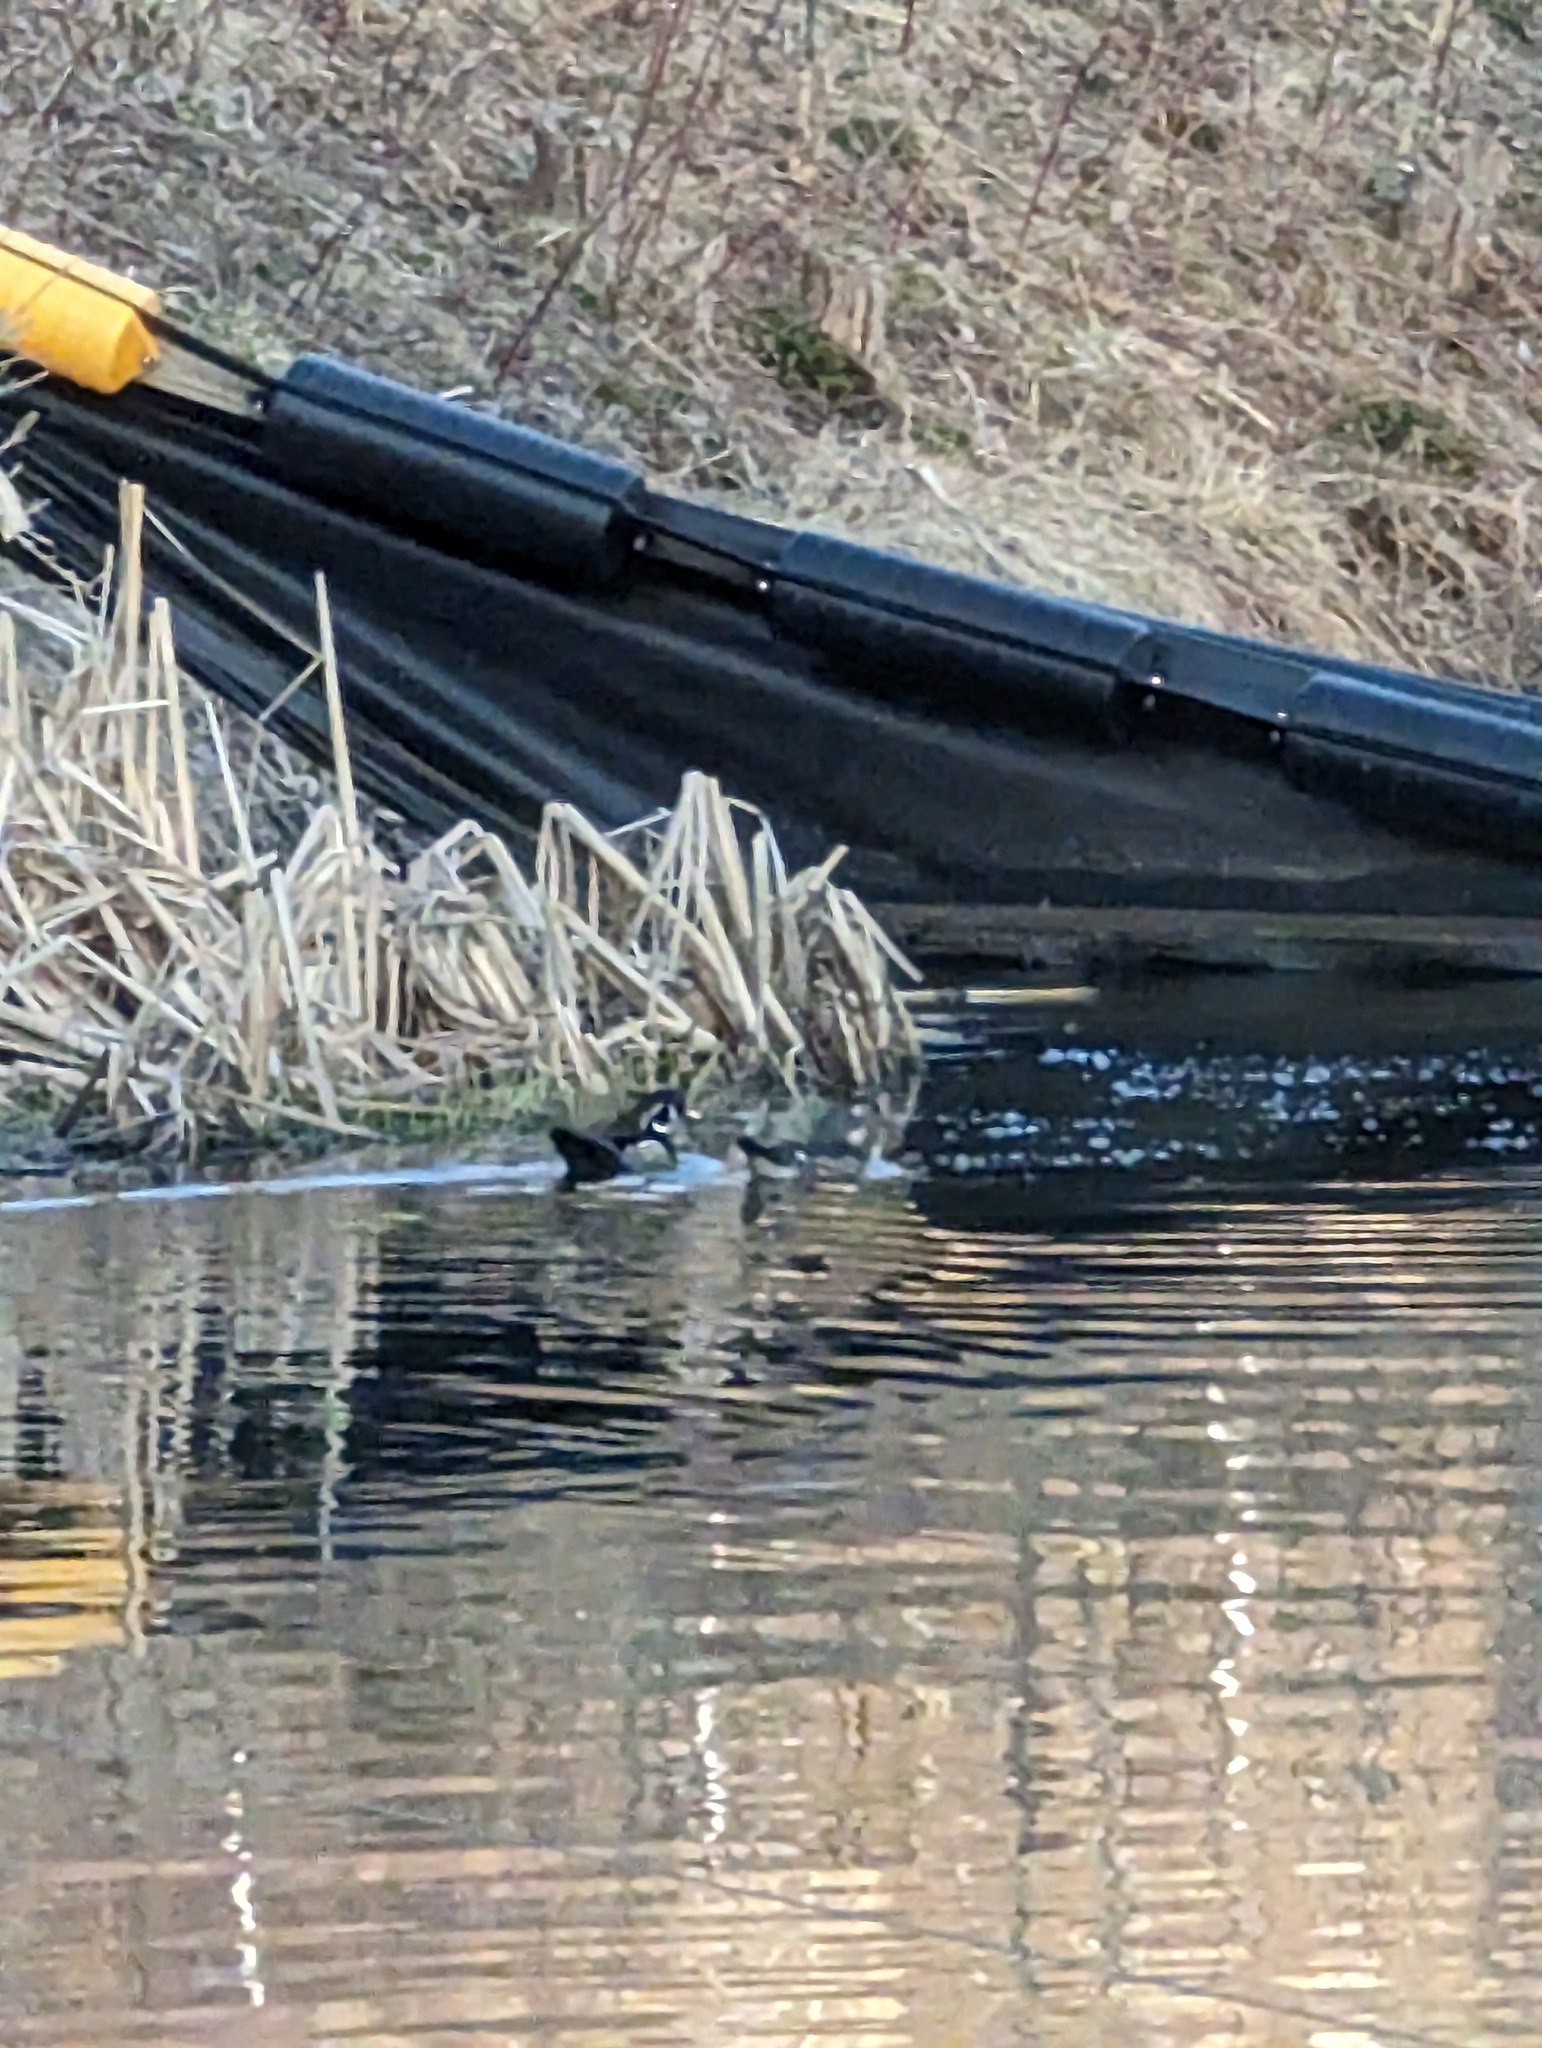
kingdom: Animalia
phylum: Chordata
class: Aves
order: Anseriformes
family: Anatidae
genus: Aix
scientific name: Aix sponsa
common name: Wood duck
